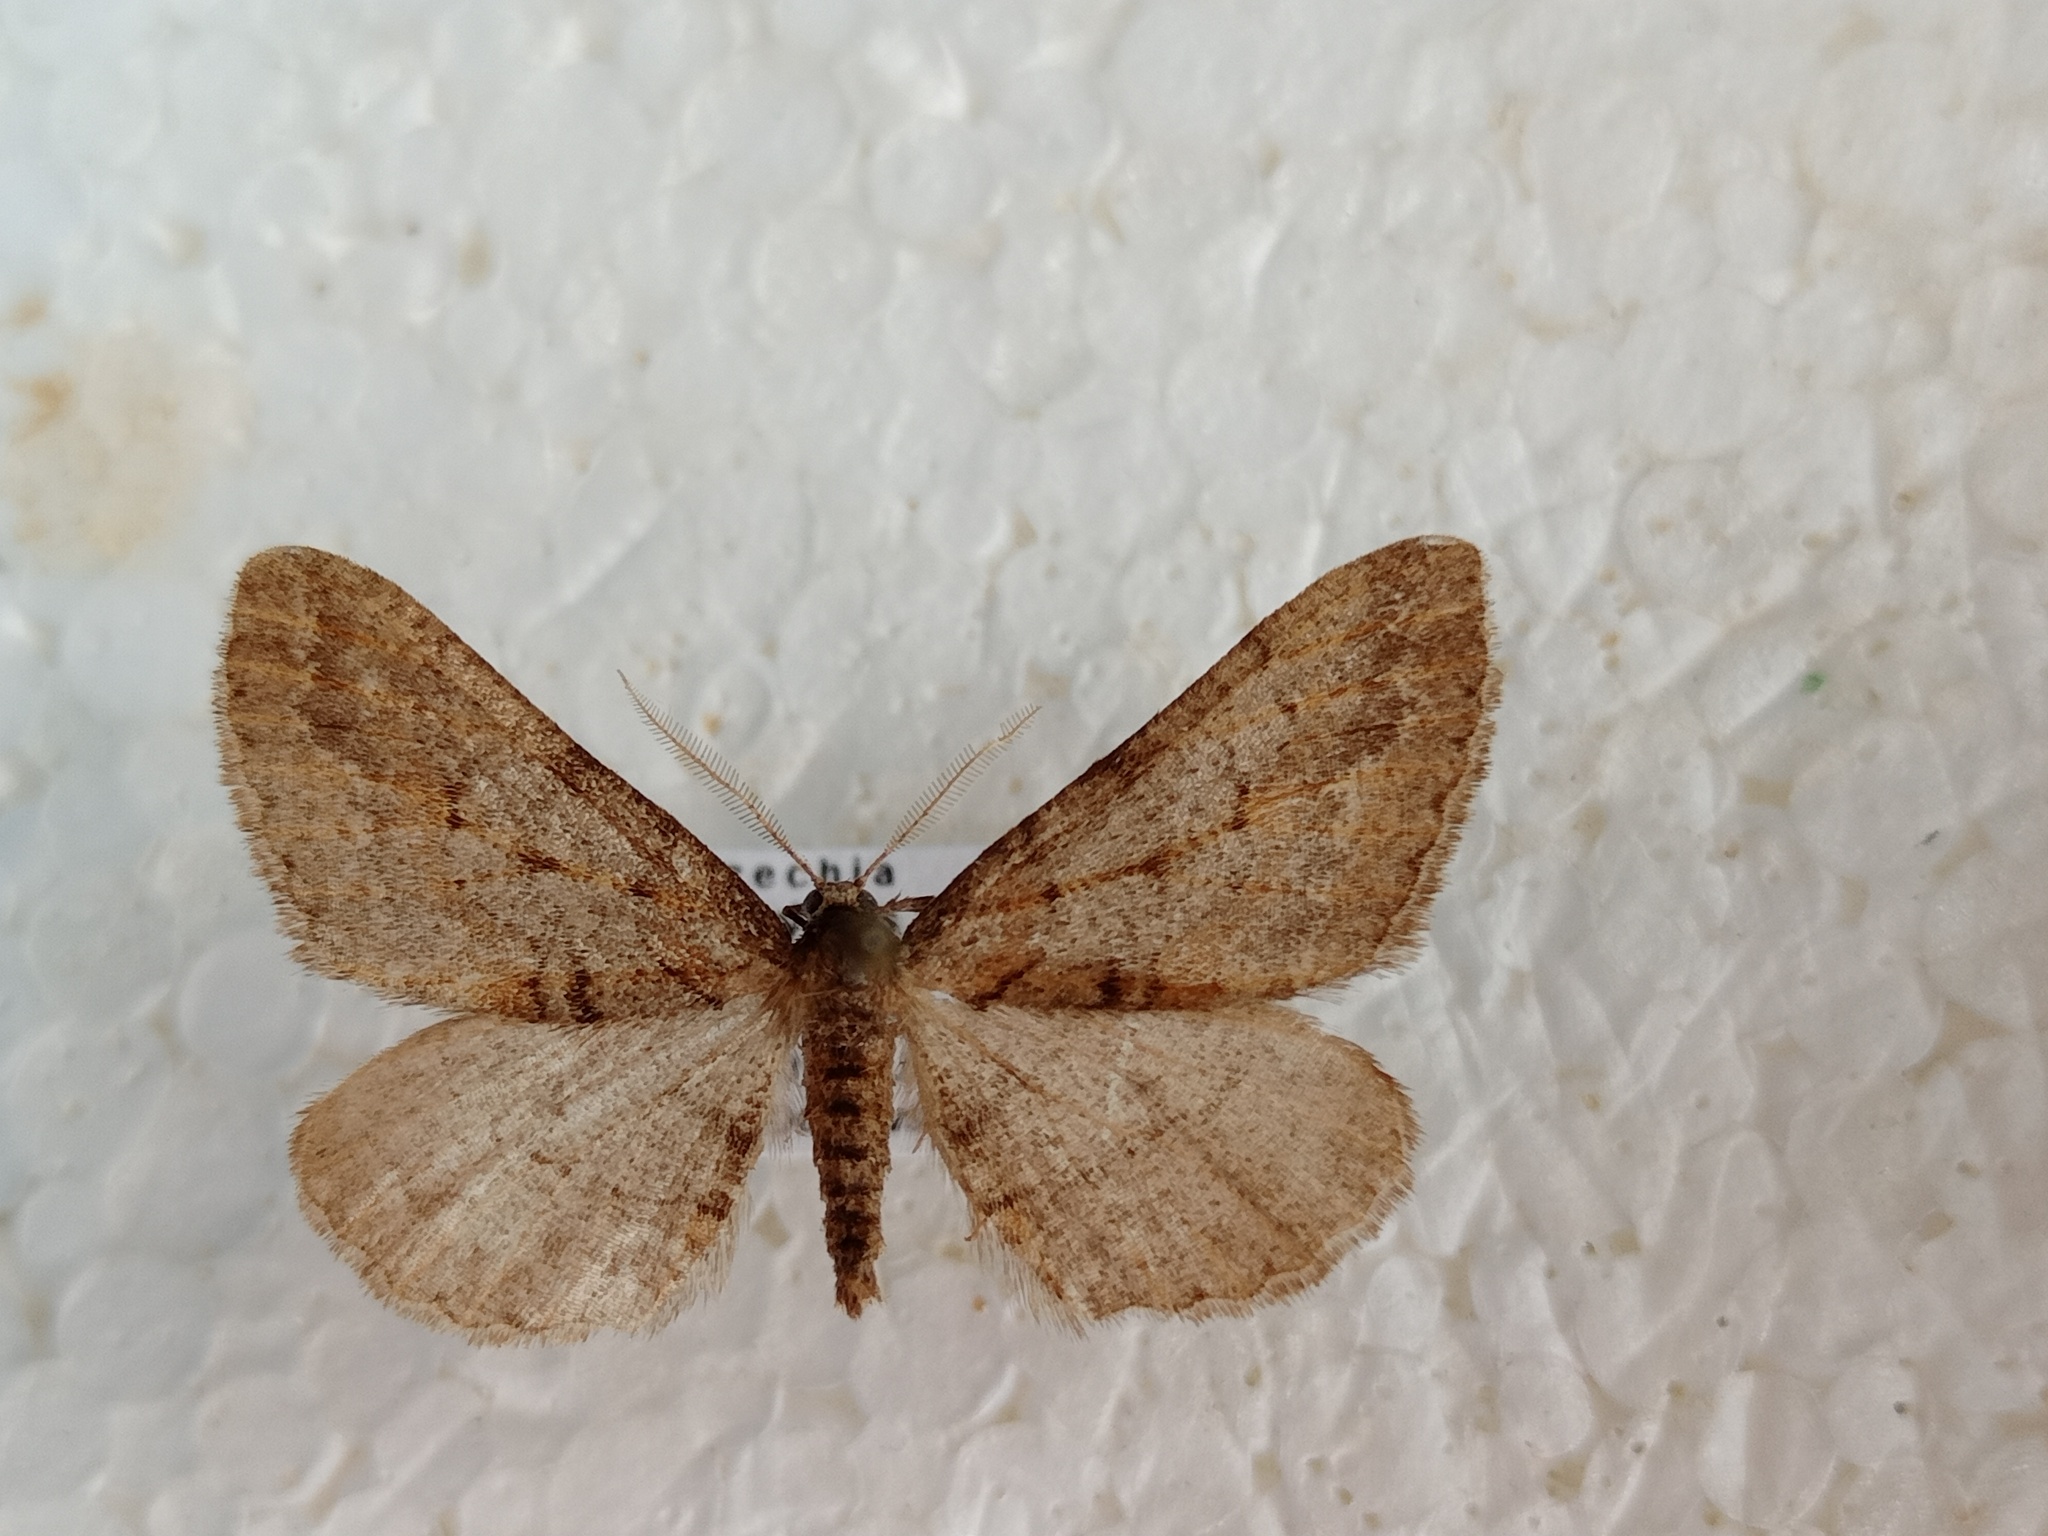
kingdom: Animalia
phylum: Arthropoda
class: Insecta
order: Lepidoptera
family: Geometridae
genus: Agriopis
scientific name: Agriopis bajaria
